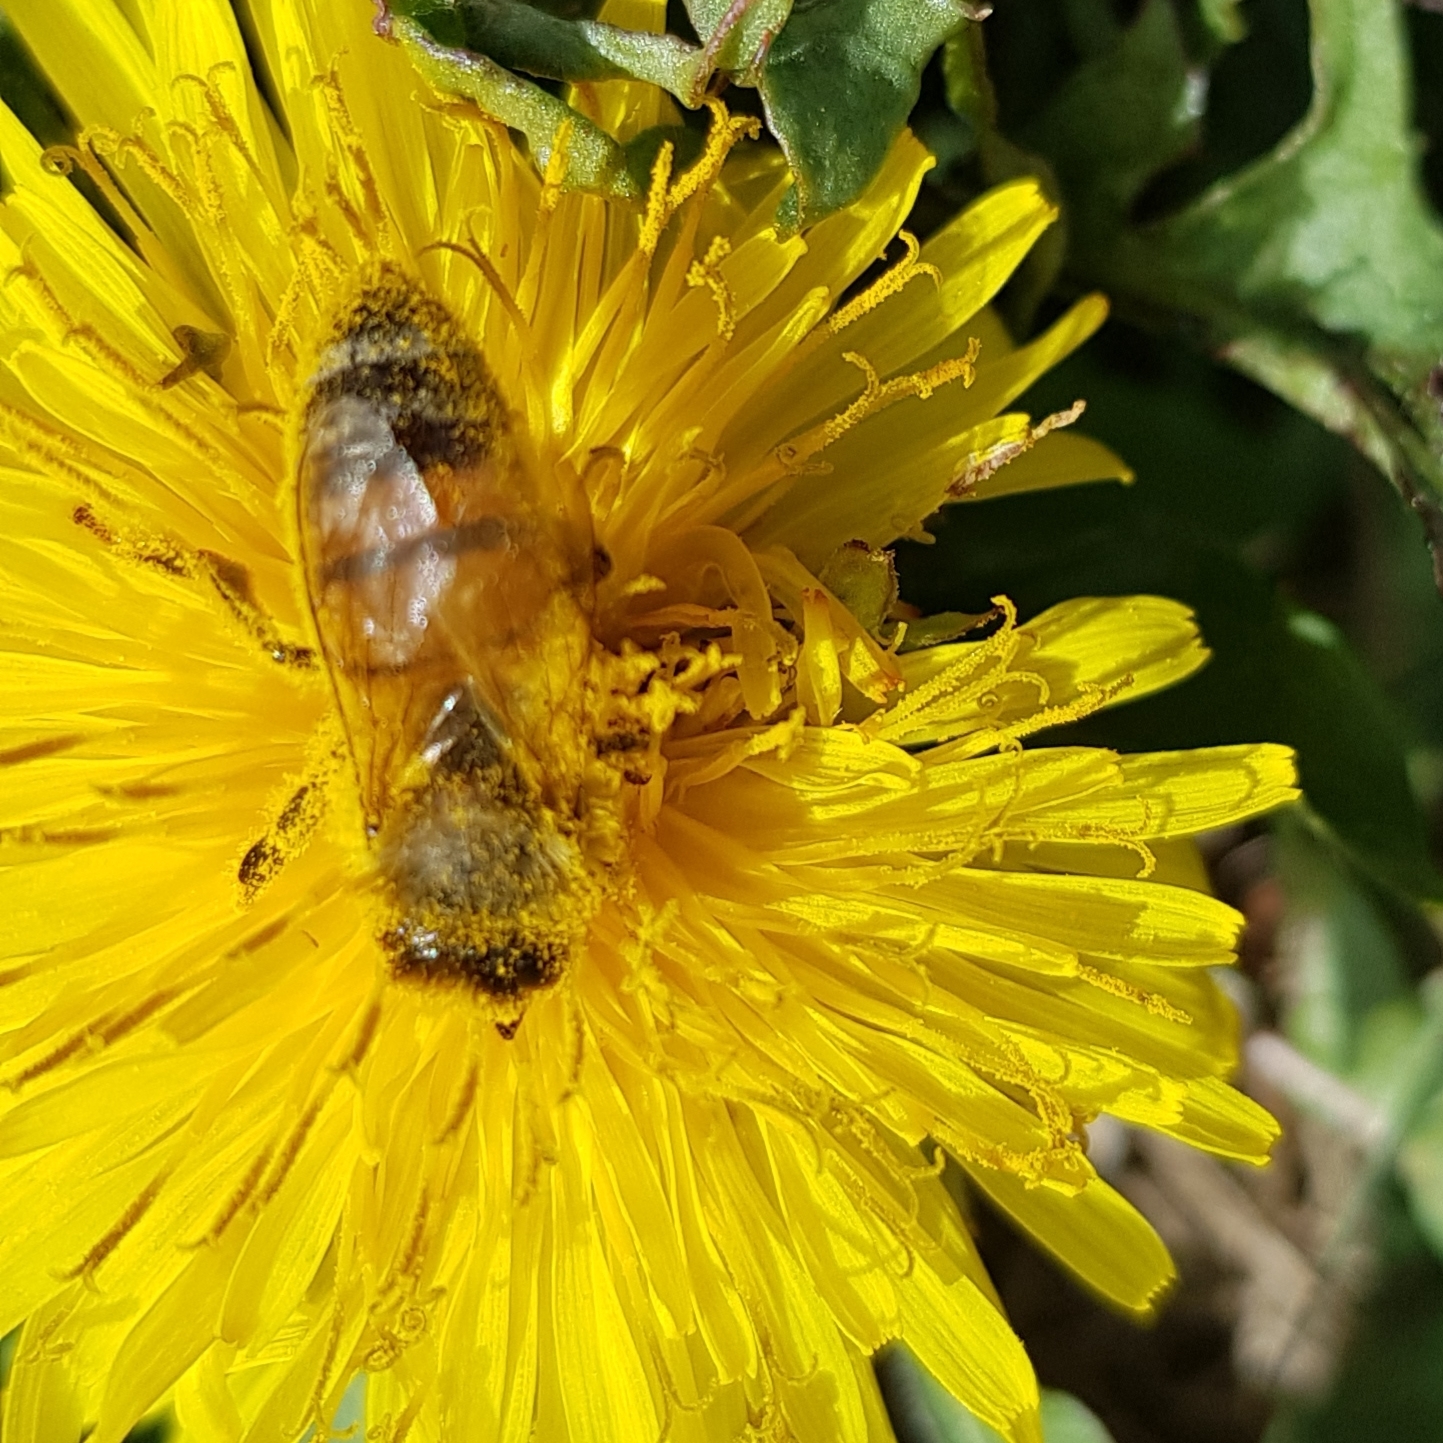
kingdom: Animalia
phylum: Arthropoda
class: Insecta
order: Hymenoptera
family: Apidae
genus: Apis
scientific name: Apis mellifera
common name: Honey bee
